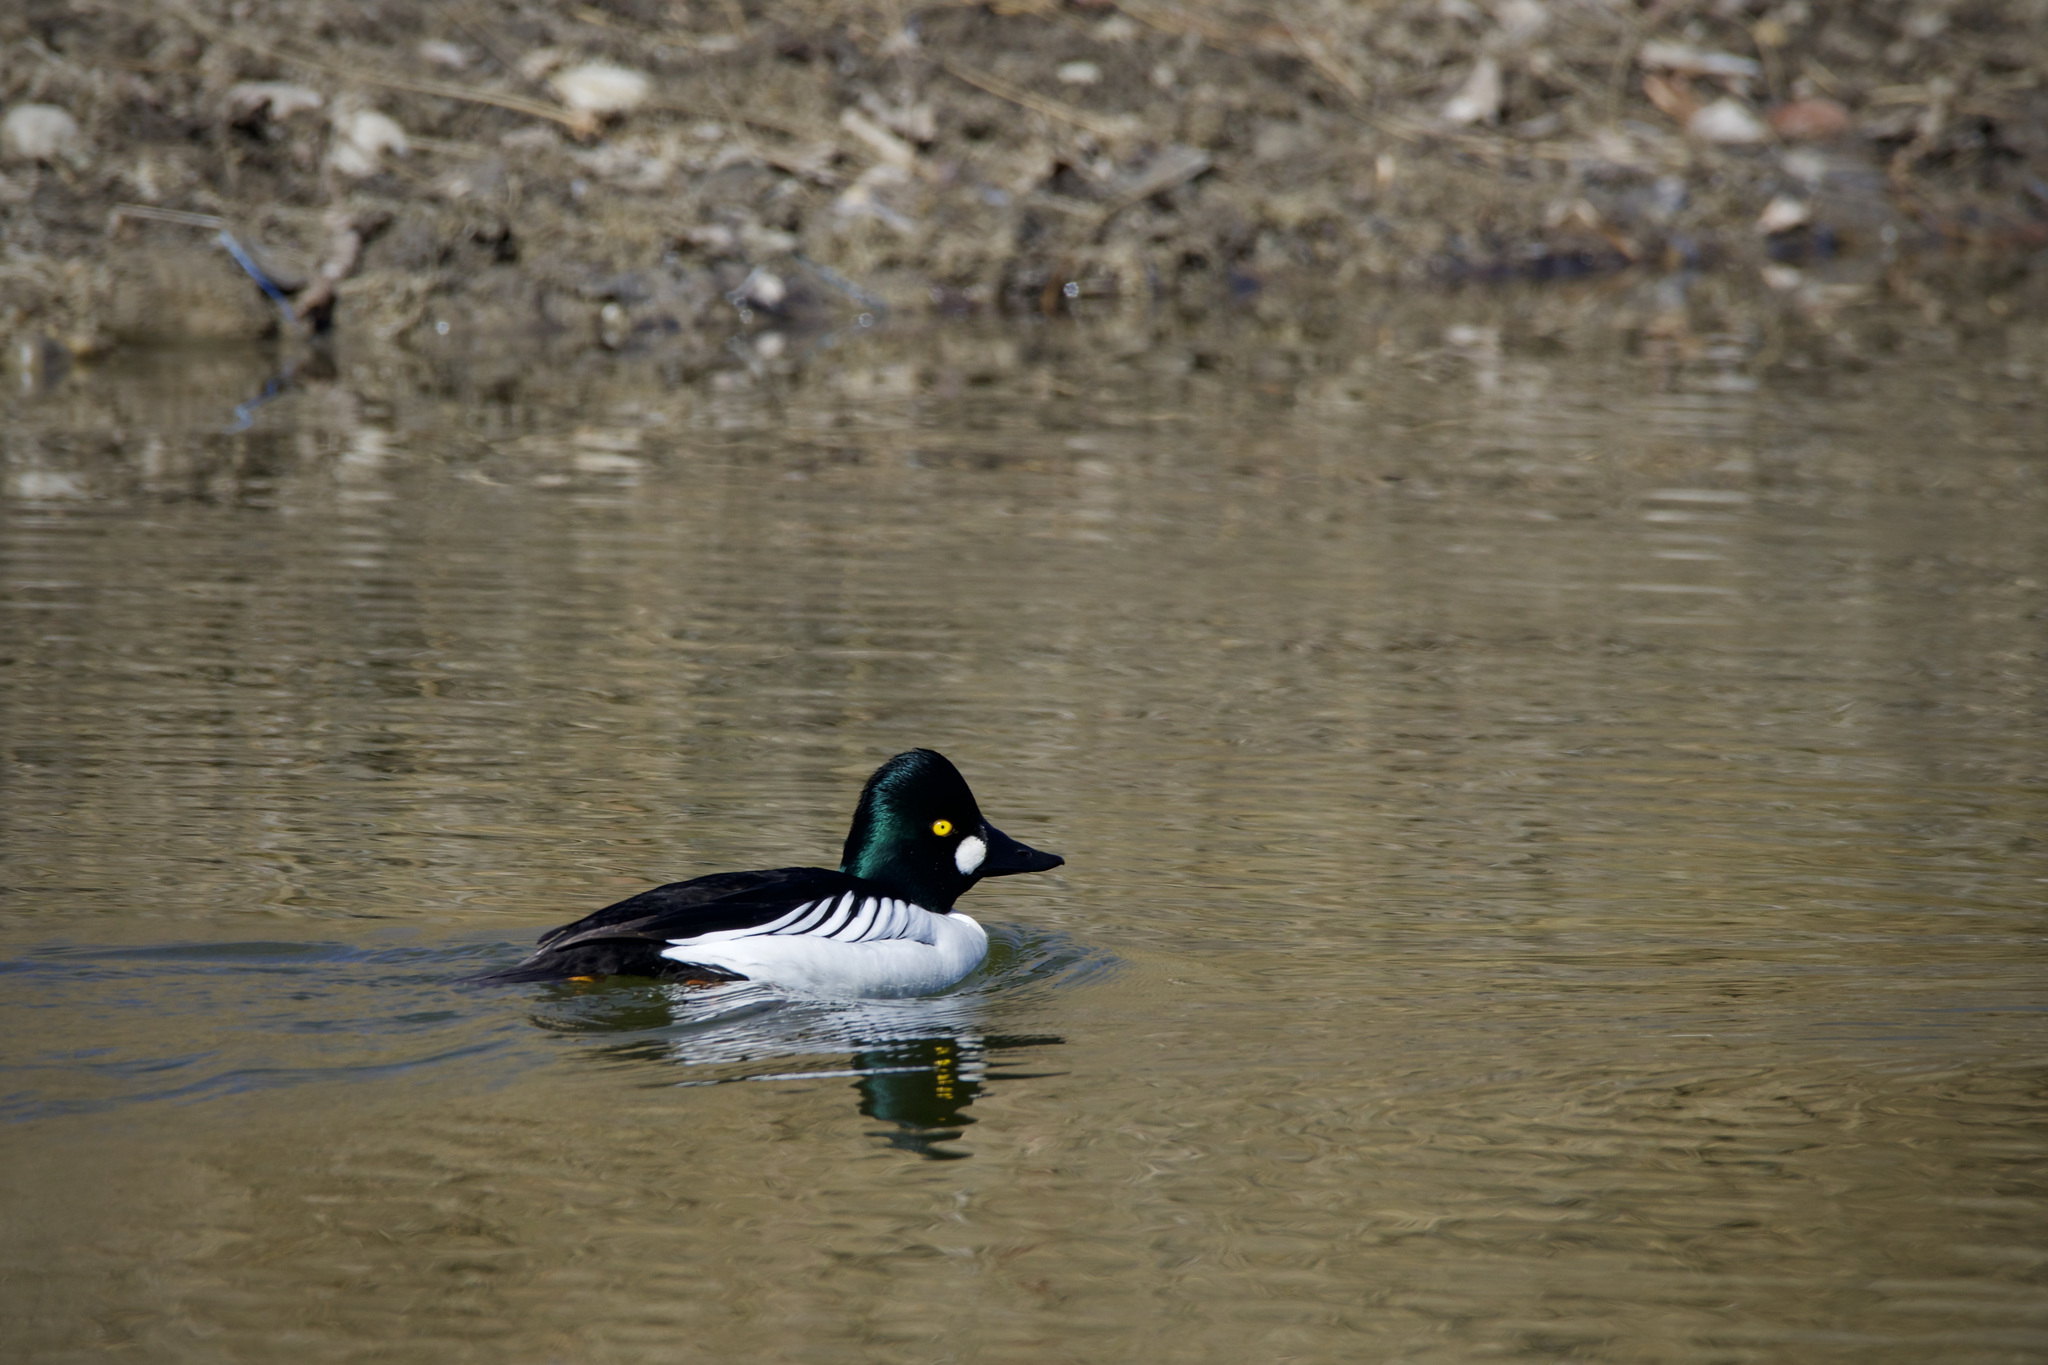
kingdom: Animalia
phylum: Chordata
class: Aves
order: Anseriformes
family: Anatidae
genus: Bucephala
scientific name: Bucephala clangula
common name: Common goldeneye
